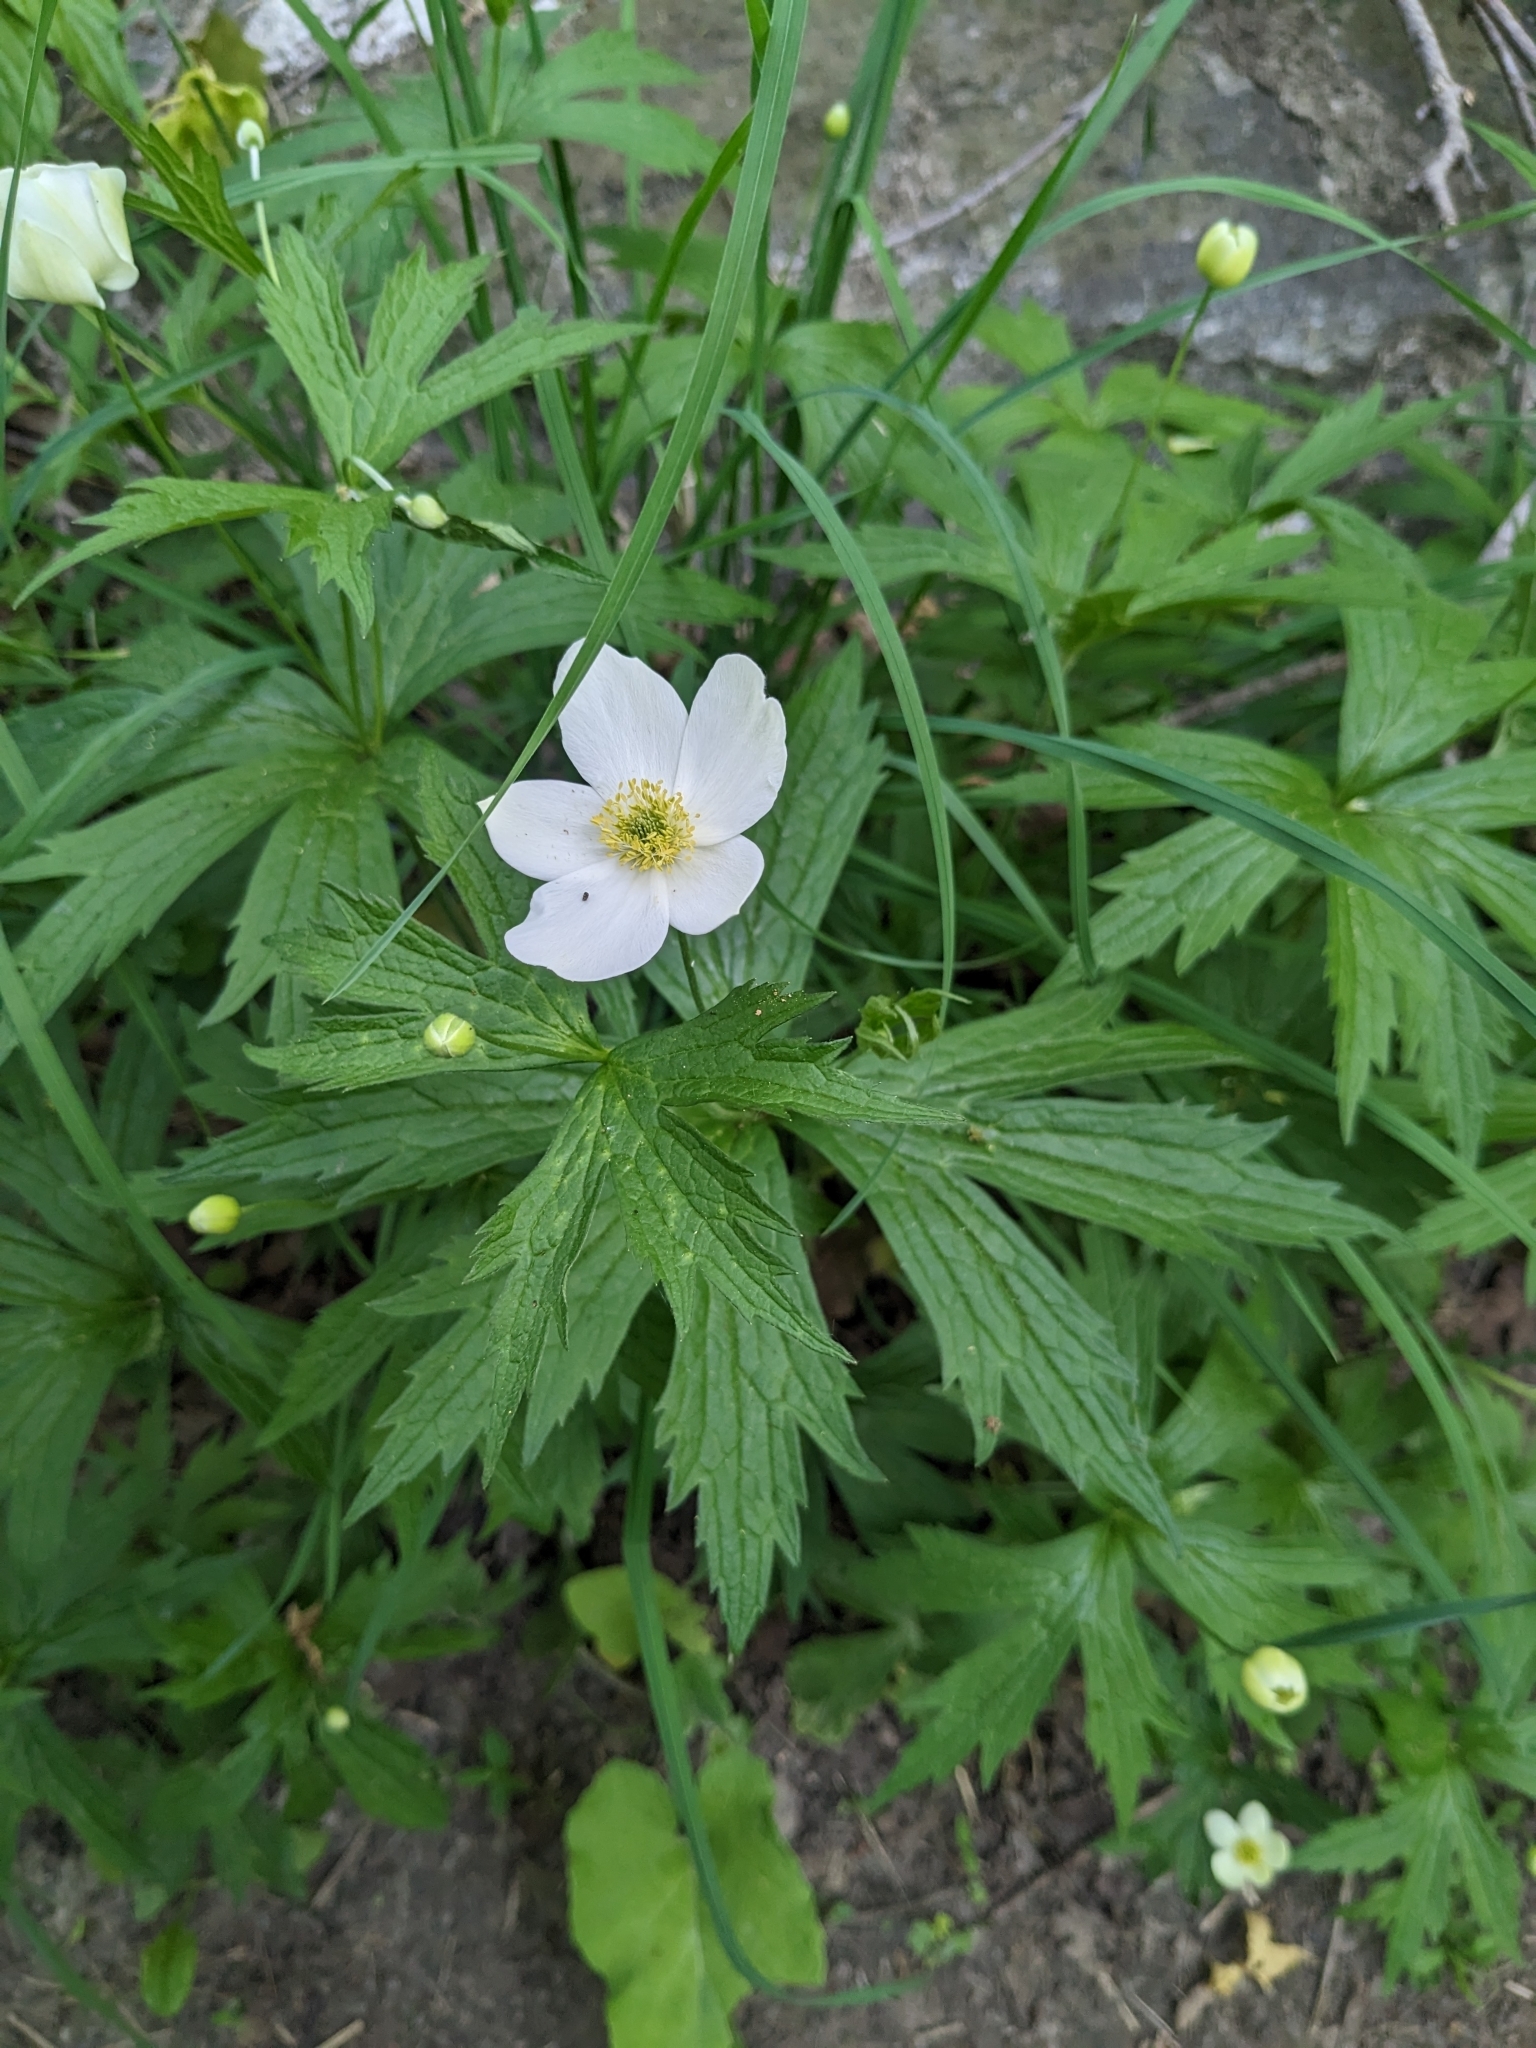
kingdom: Plantae
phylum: Tracheophyta
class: Magnoliopsida
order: Ranunculales
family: Ranunculaceae
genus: Anemonastrum
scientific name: Anemonastrum canadense
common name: Canada anemone
